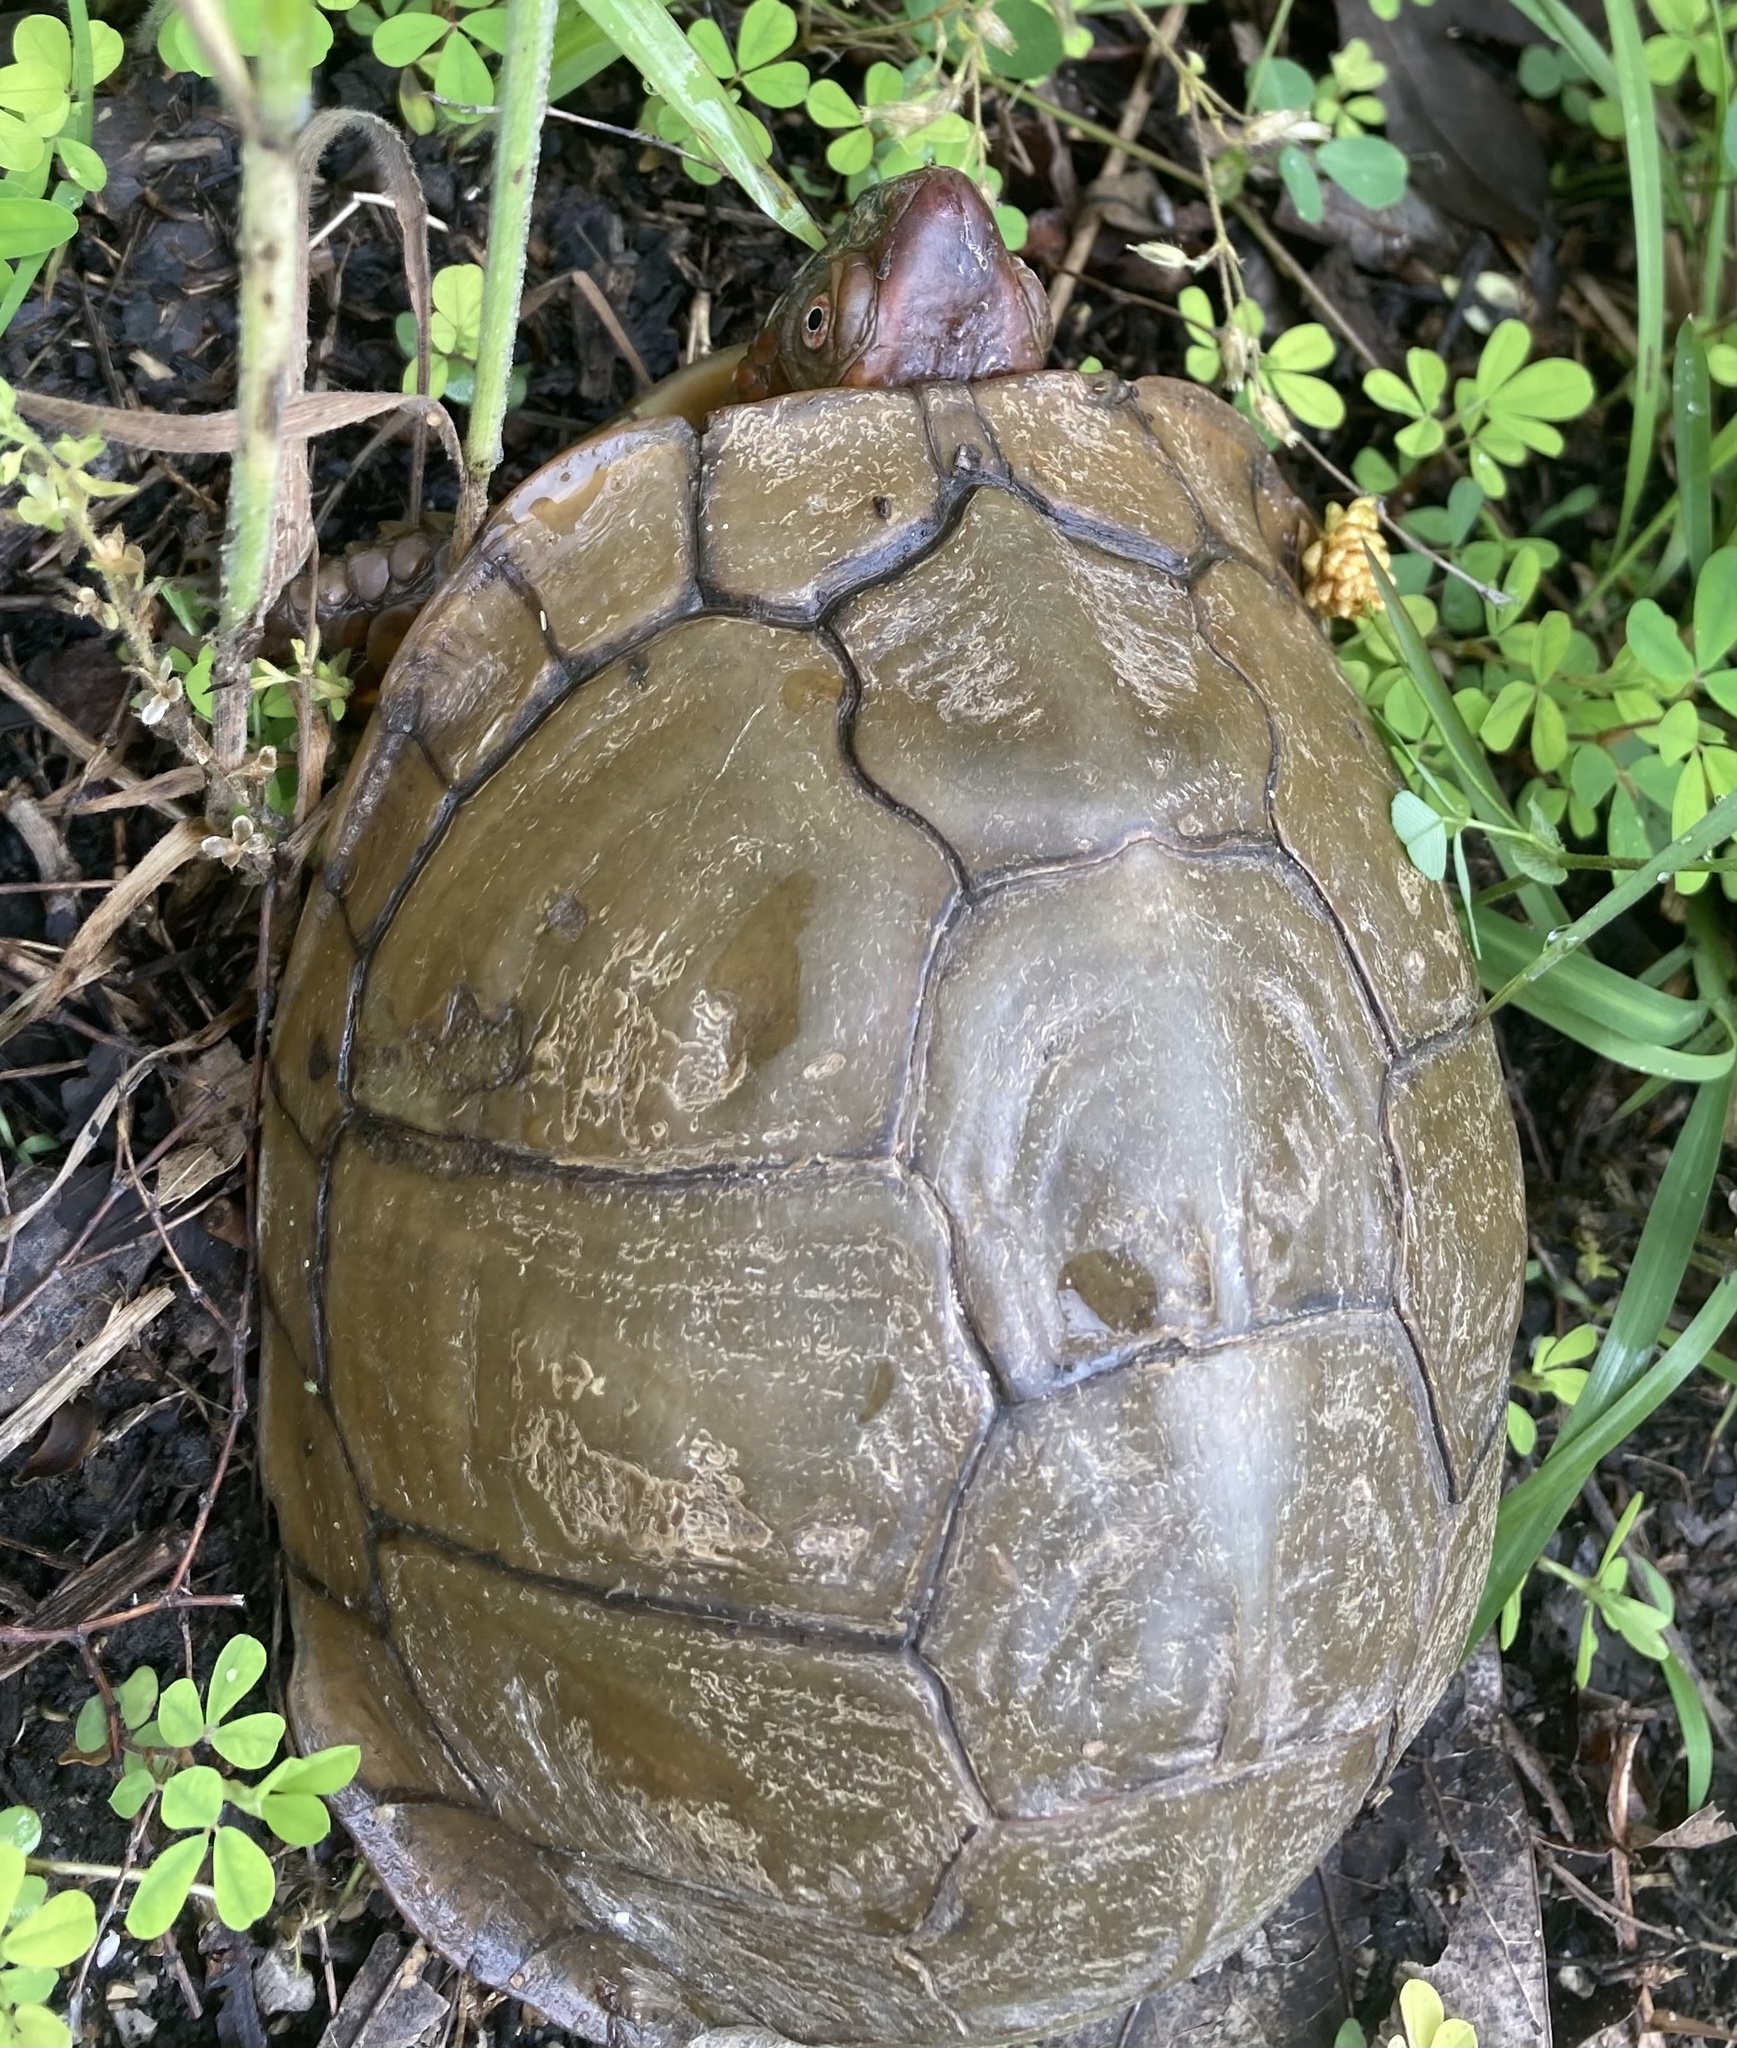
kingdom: Animalia
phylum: Chordata
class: Testudines
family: Emydidae
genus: Terrapene
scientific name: Terrapene carolina
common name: Common box turtle
